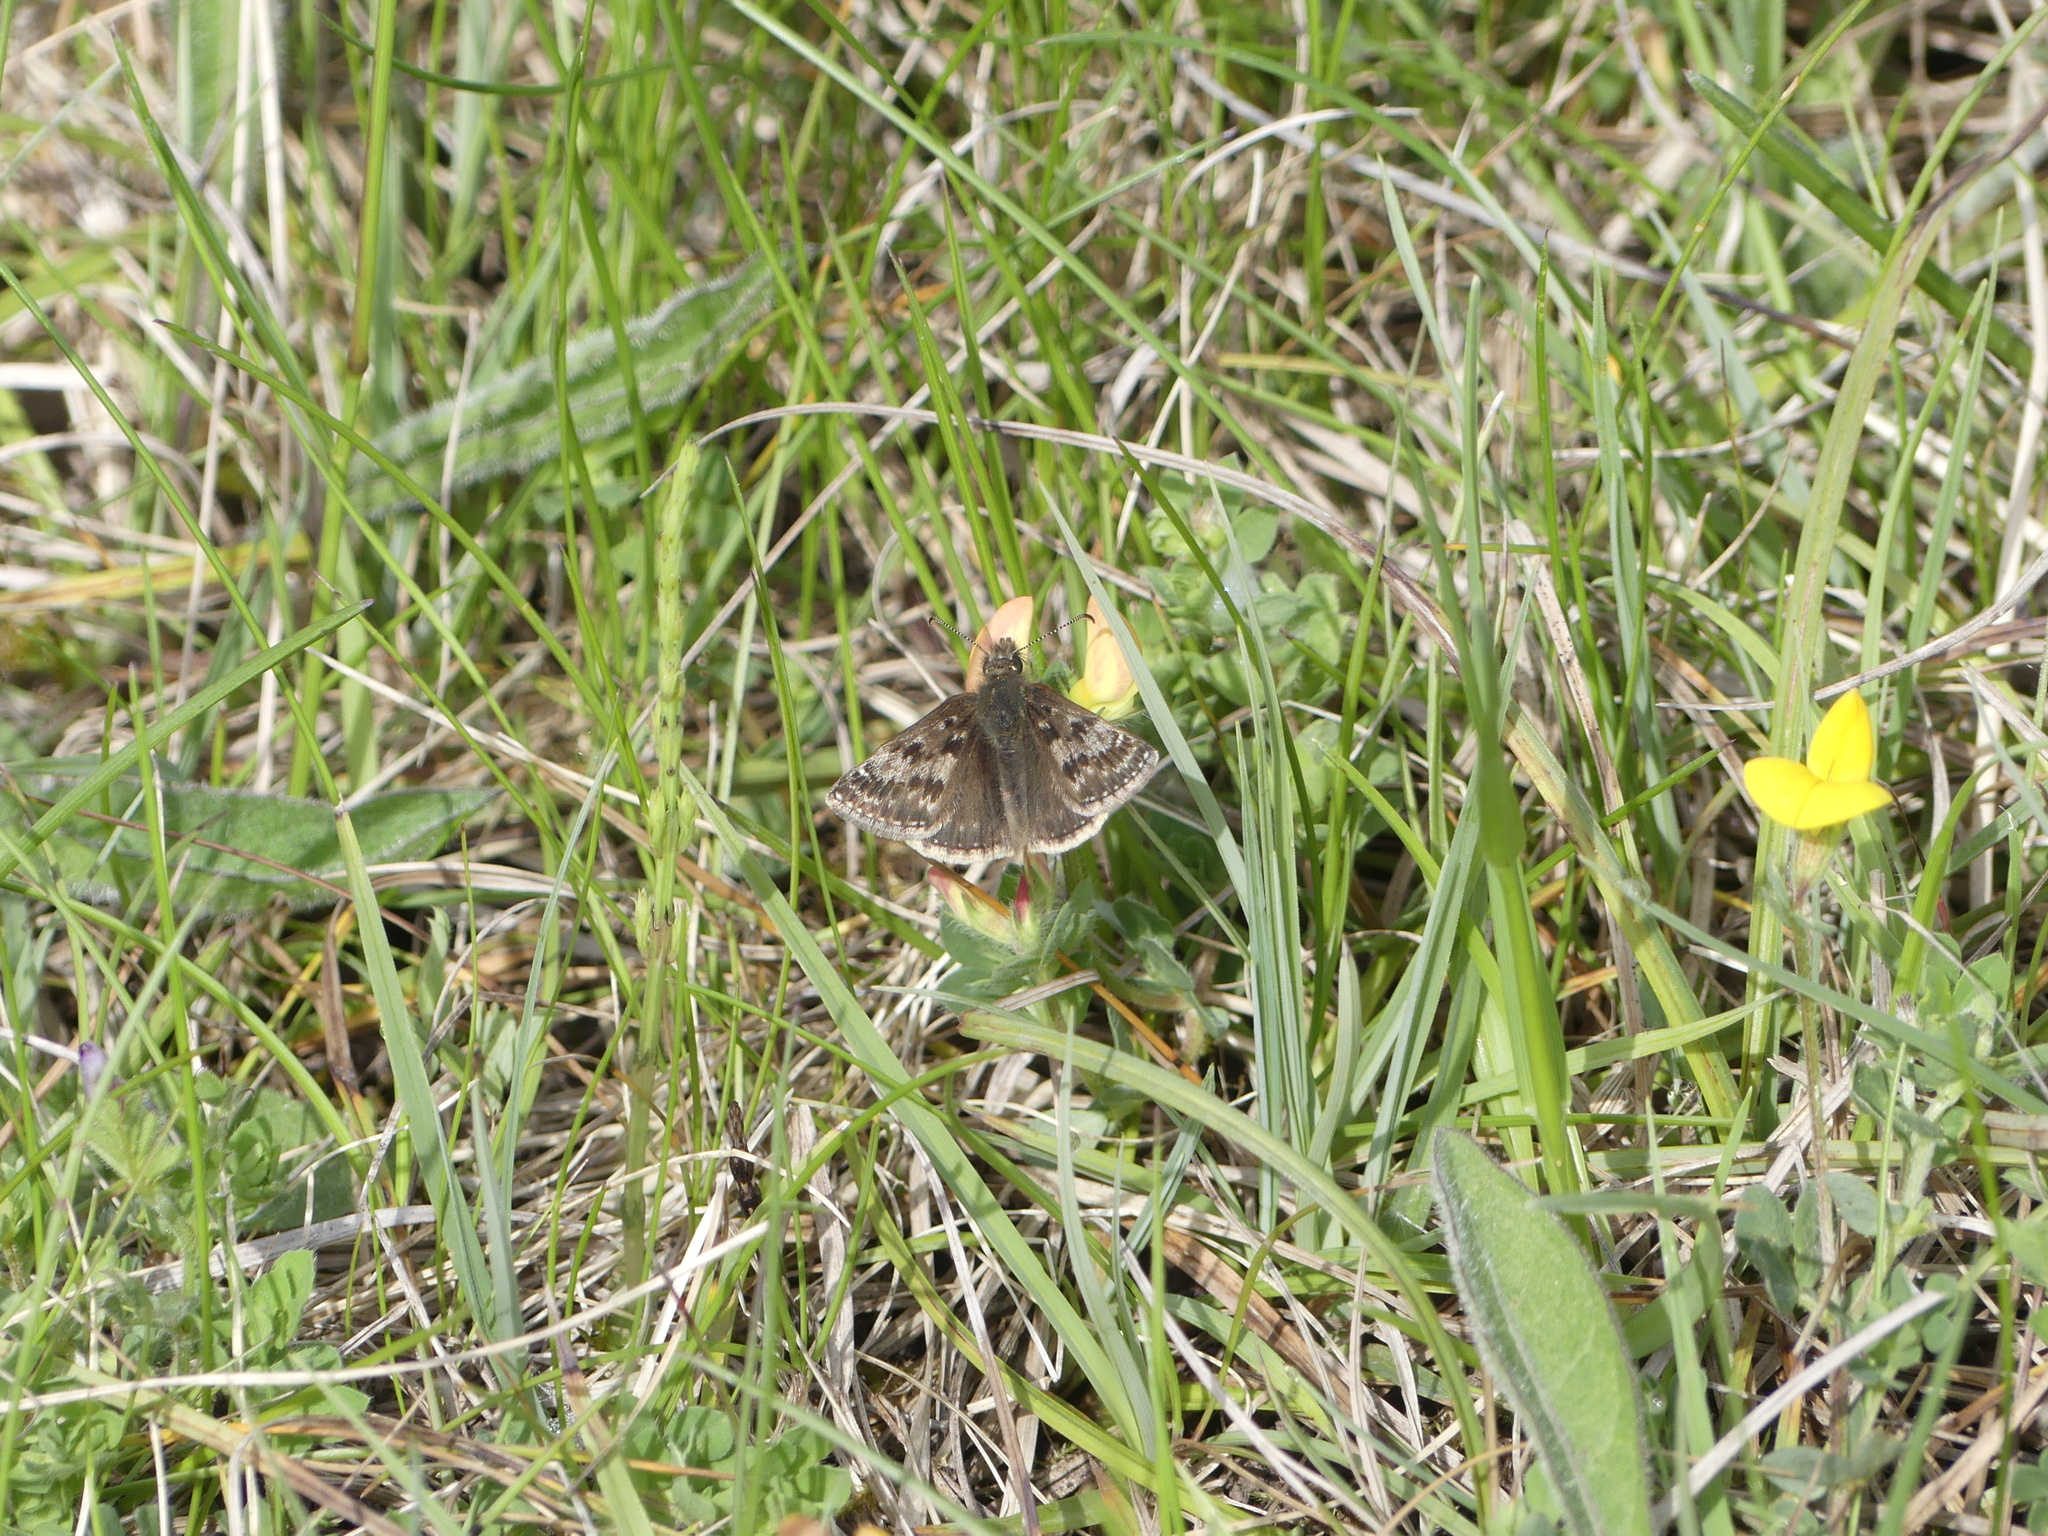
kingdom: Animalia
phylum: Arthropoda
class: Insecta
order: Lepidoptera
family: Hesperiidae
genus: Erynnis
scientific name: Erynnis tages
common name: Dingy skipper
